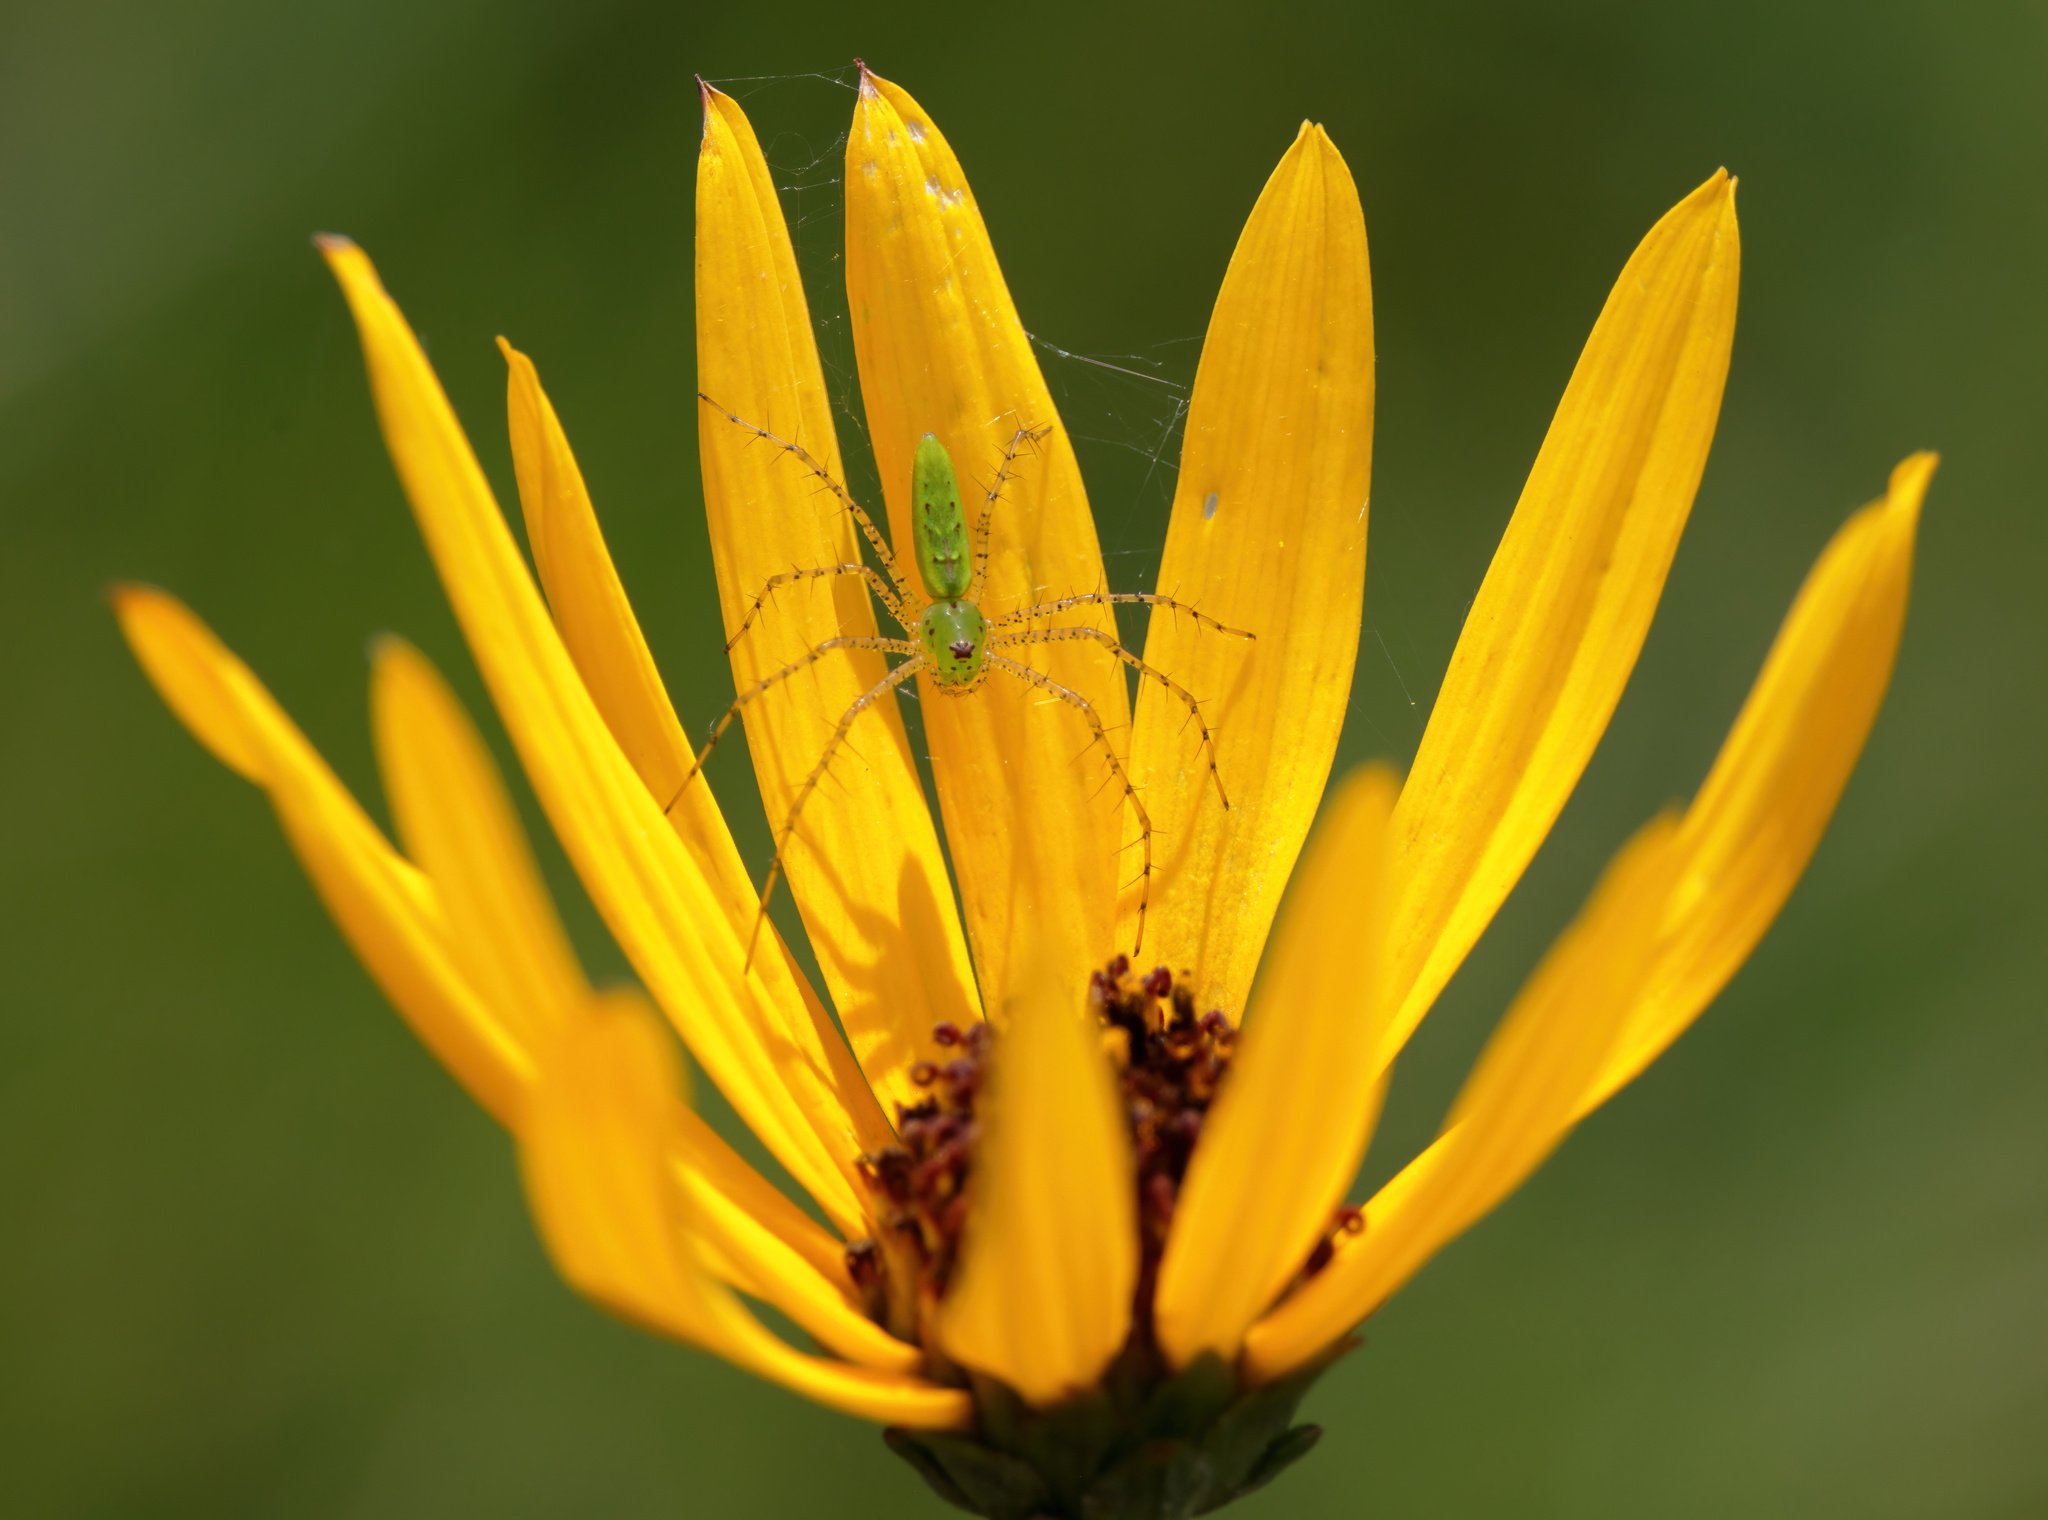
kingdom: Animalia
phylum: Arthropoda
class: Arachnida
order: Araneae
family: Oxyopidae
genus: Peucetia
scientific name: Peucetia viridans
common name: Lynx spiders
